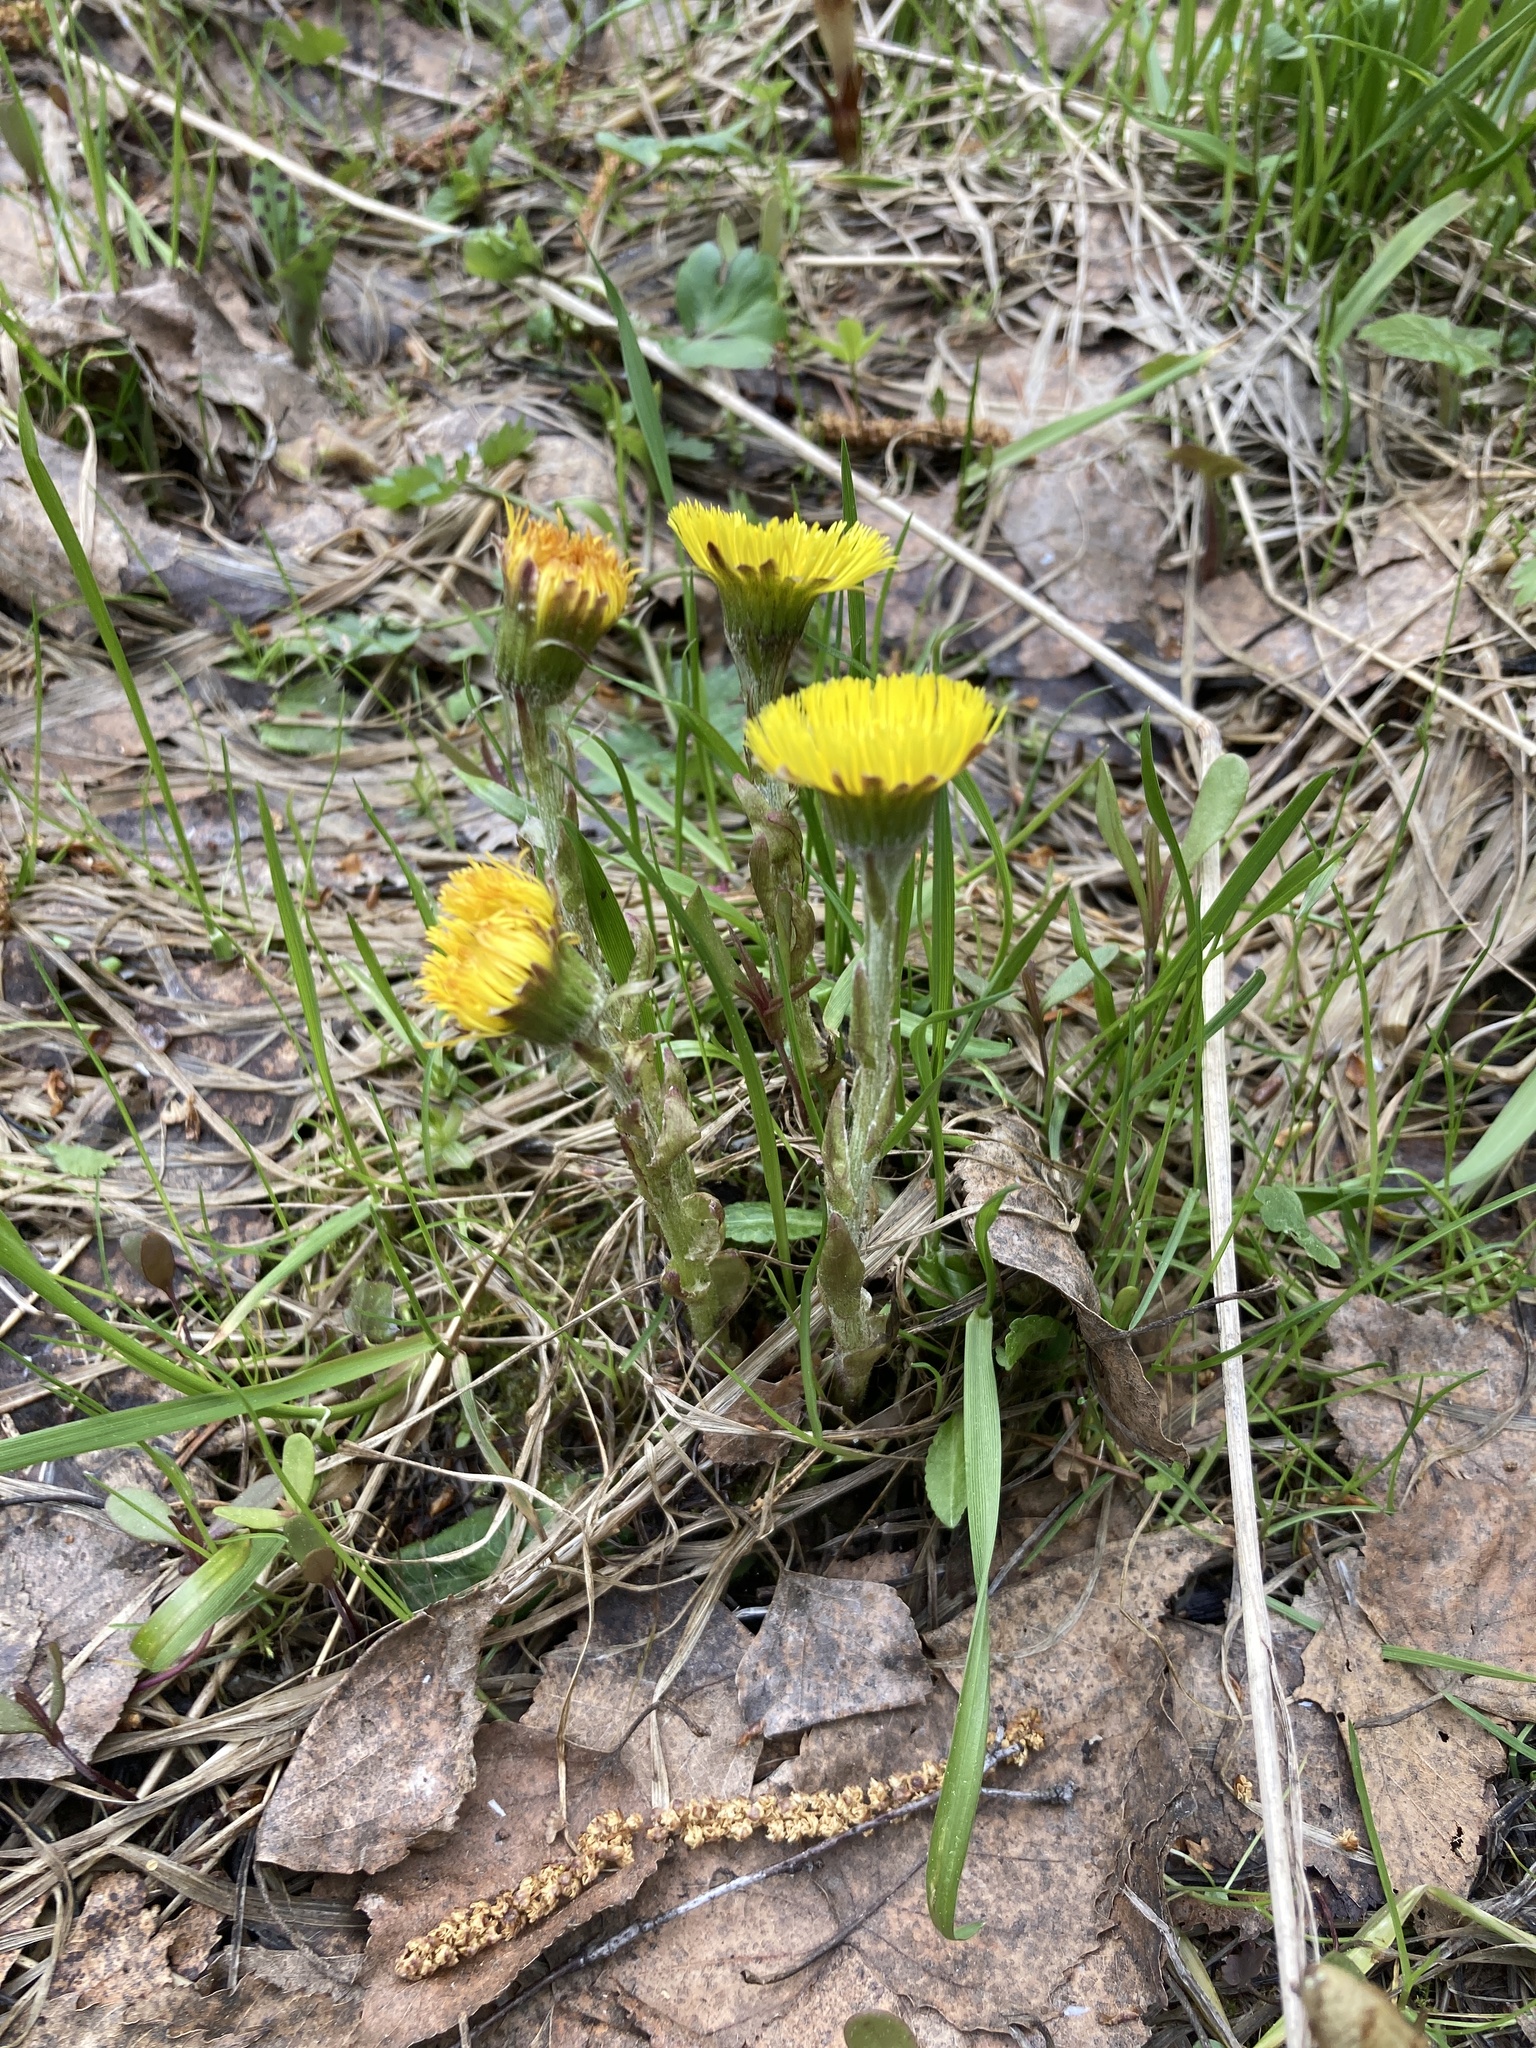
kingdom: Plantae
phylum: Tracheophyta
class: Magnoliopsida
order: Asterales
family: Asteraceae
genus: Tussilago
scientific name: Tussilago farfara
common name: Coltsfoot
